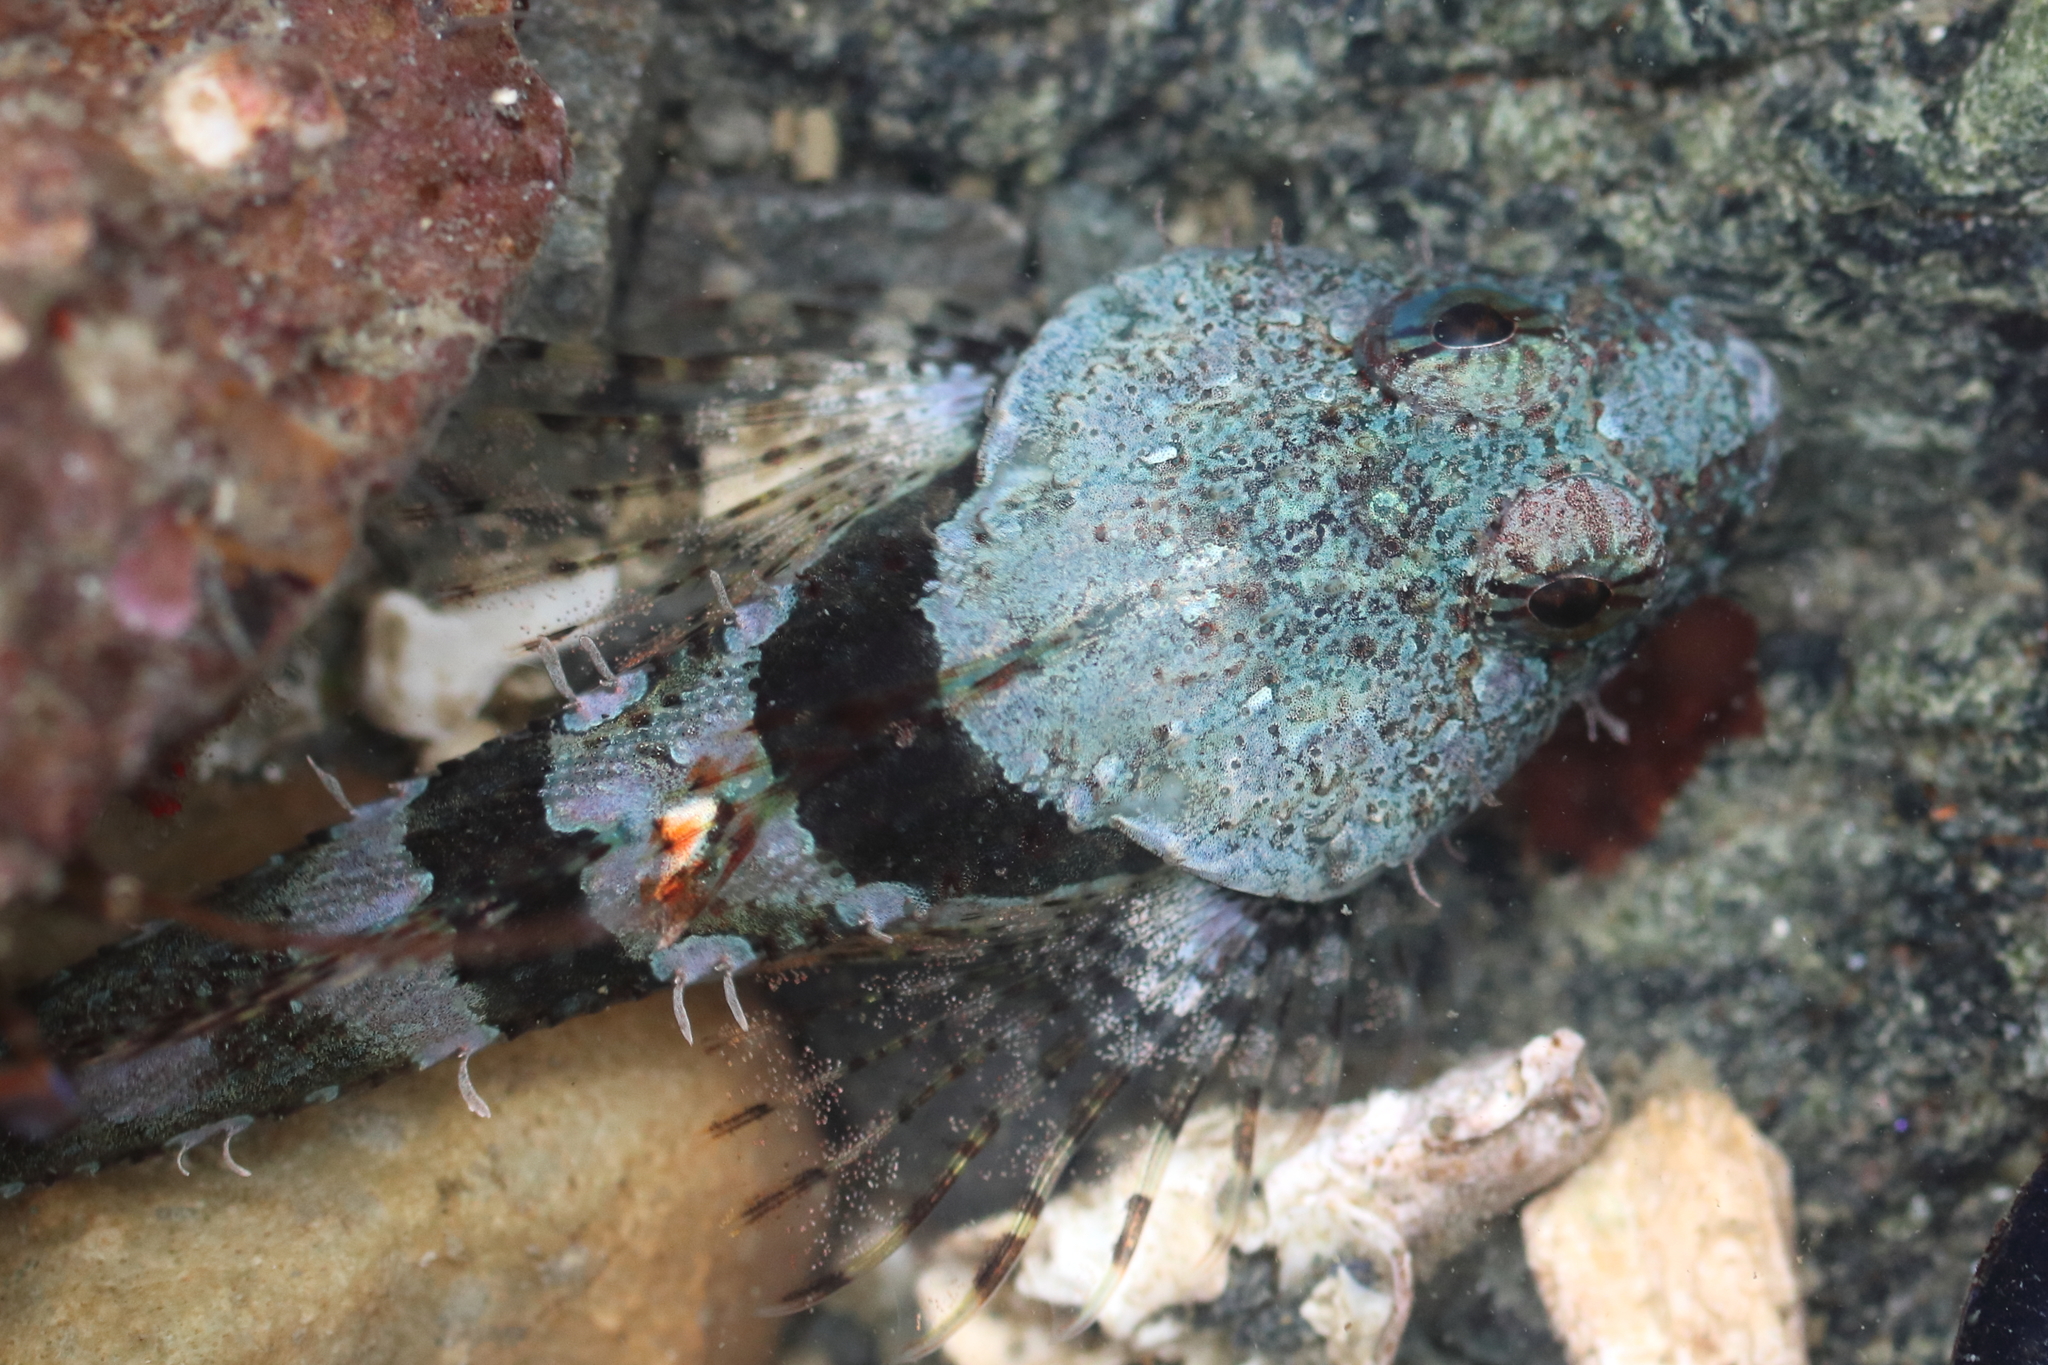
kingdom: Animalia
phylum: Chordata
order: Scorpaeniformes
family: Cottidae
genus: Artedius
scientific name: Artedius lateralis
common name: Smooth-head sculpin
